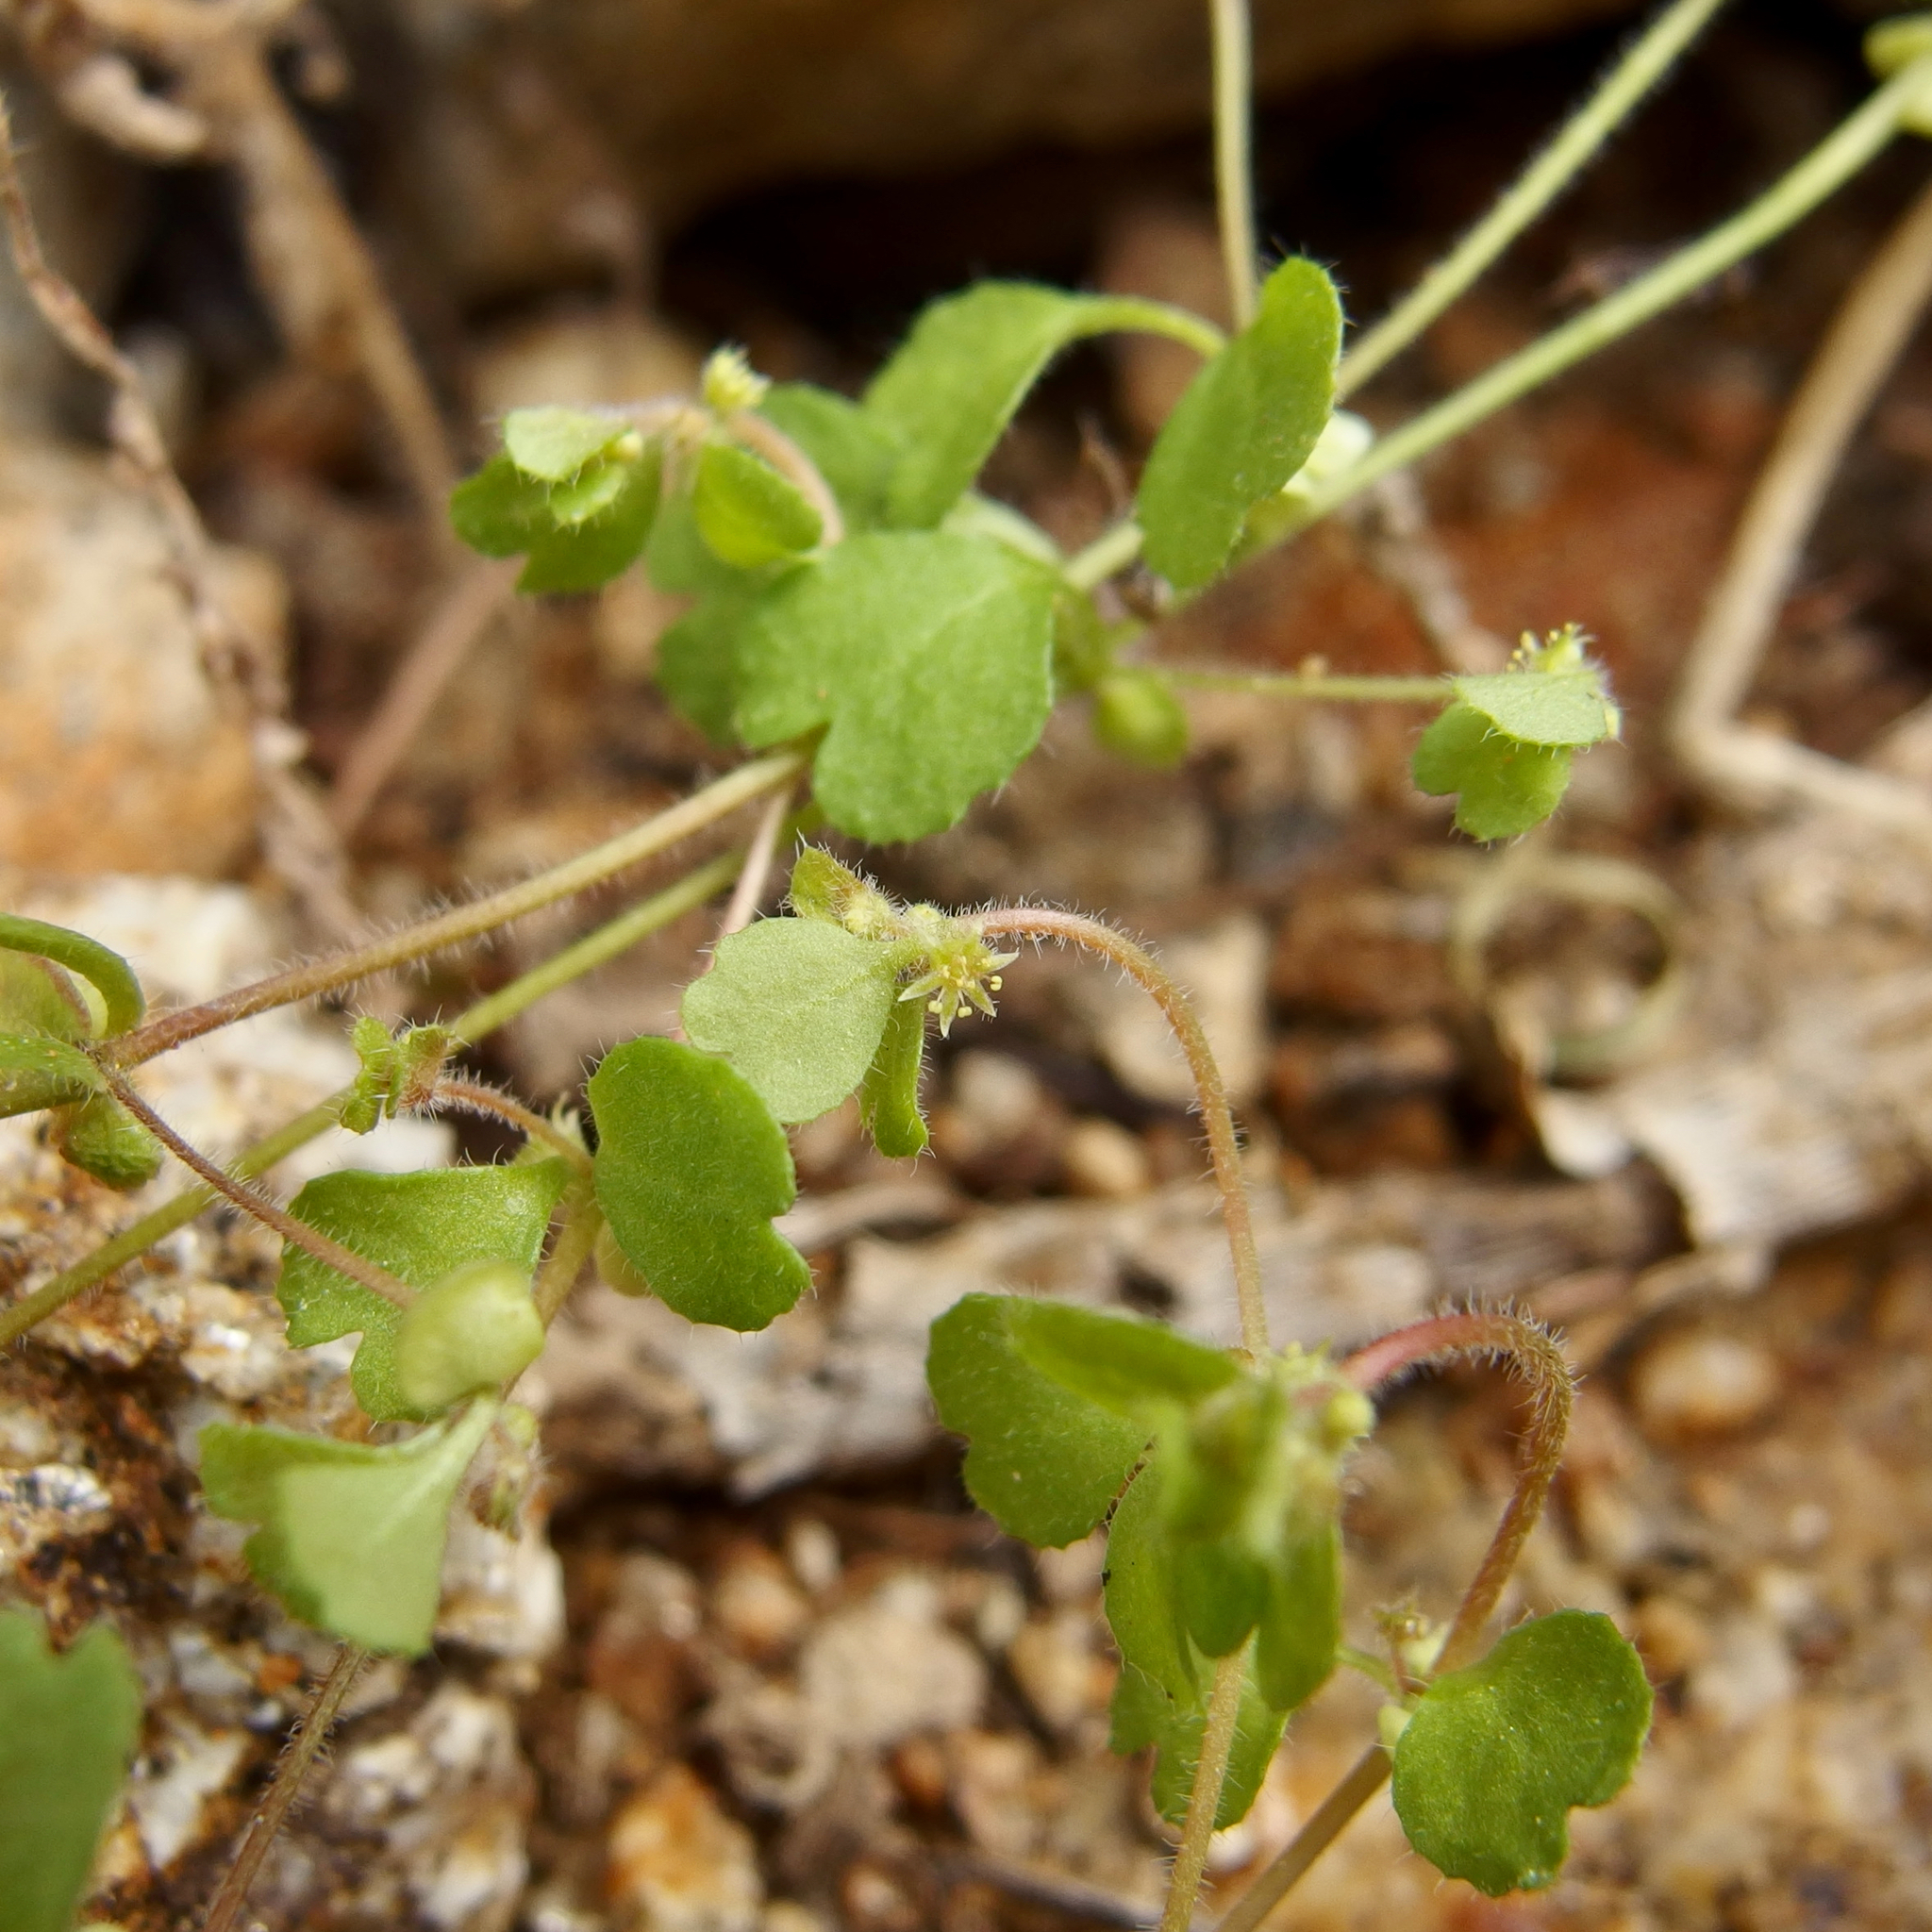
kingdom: Plantae
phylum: Tracheophyta
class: Magnoliopsida
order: Caryophyllales
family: Polygonaceae
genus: Pterostegia
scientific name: Pterostegia drymarioides
